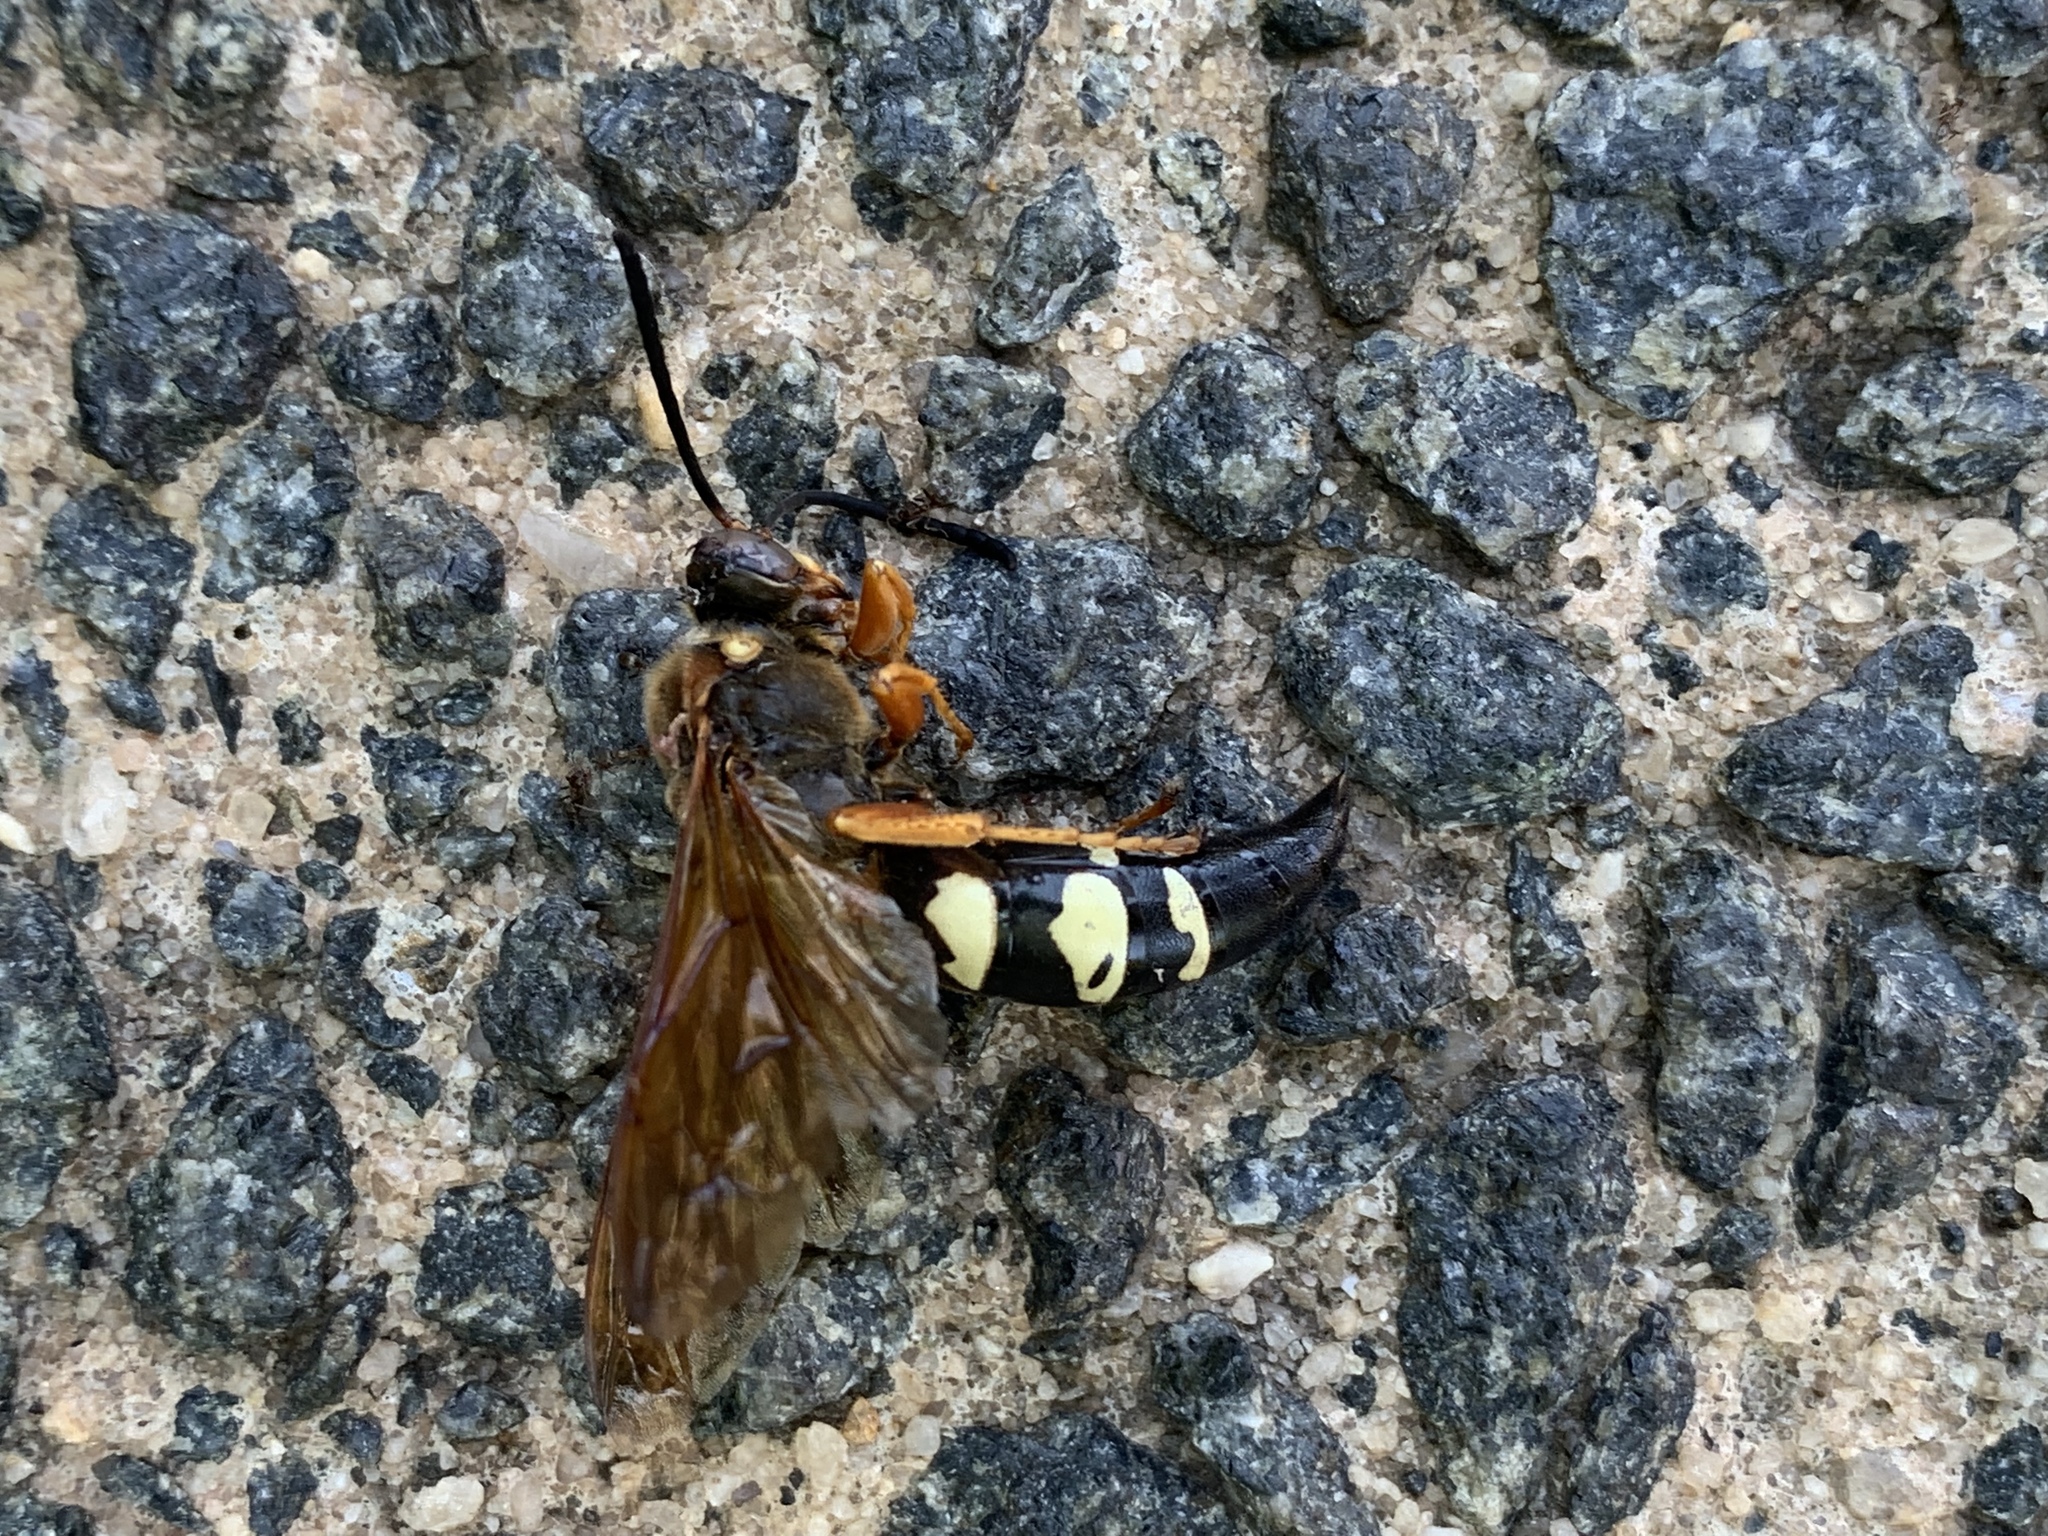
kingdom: Animalia
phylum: Arthropoda
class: Insecta
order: Hymenoptera
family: Crabronidae
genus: Sphecius
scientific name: Sphecius speciosus
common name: Cicada killer
